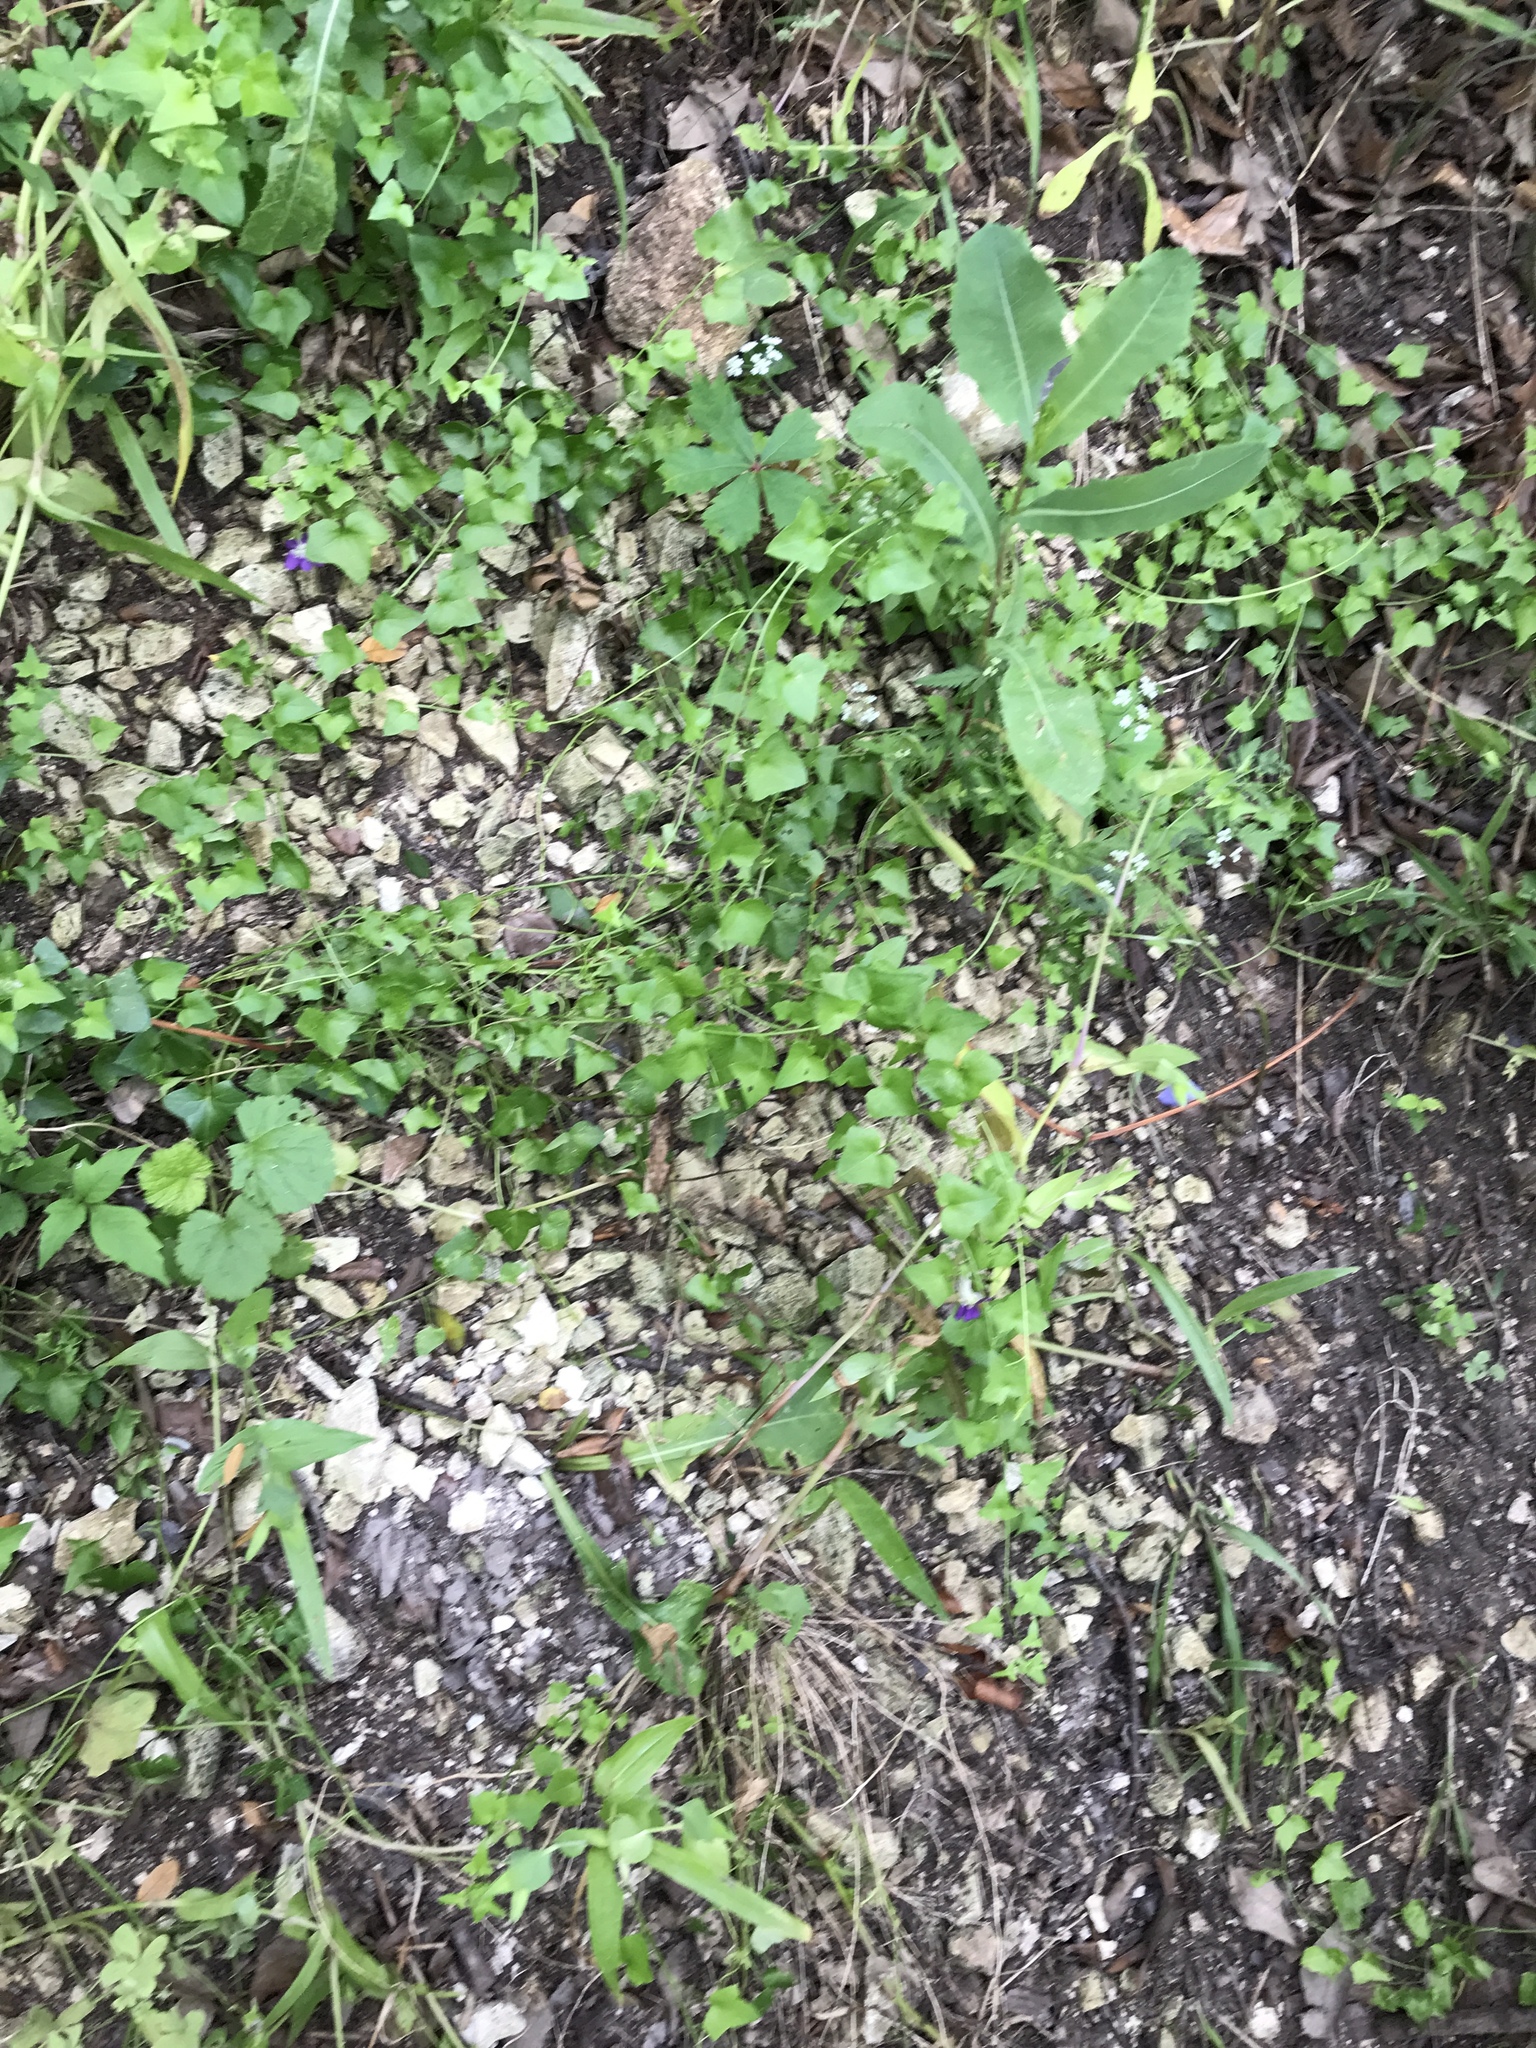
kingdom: Plantae
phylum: Tracheophyta
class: Magnoliopsida
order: Lamiales
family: Plantaginaceae
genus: Maurandella
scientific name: Maurandella antirrhiniflora
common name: Violet twining-snapdragon
